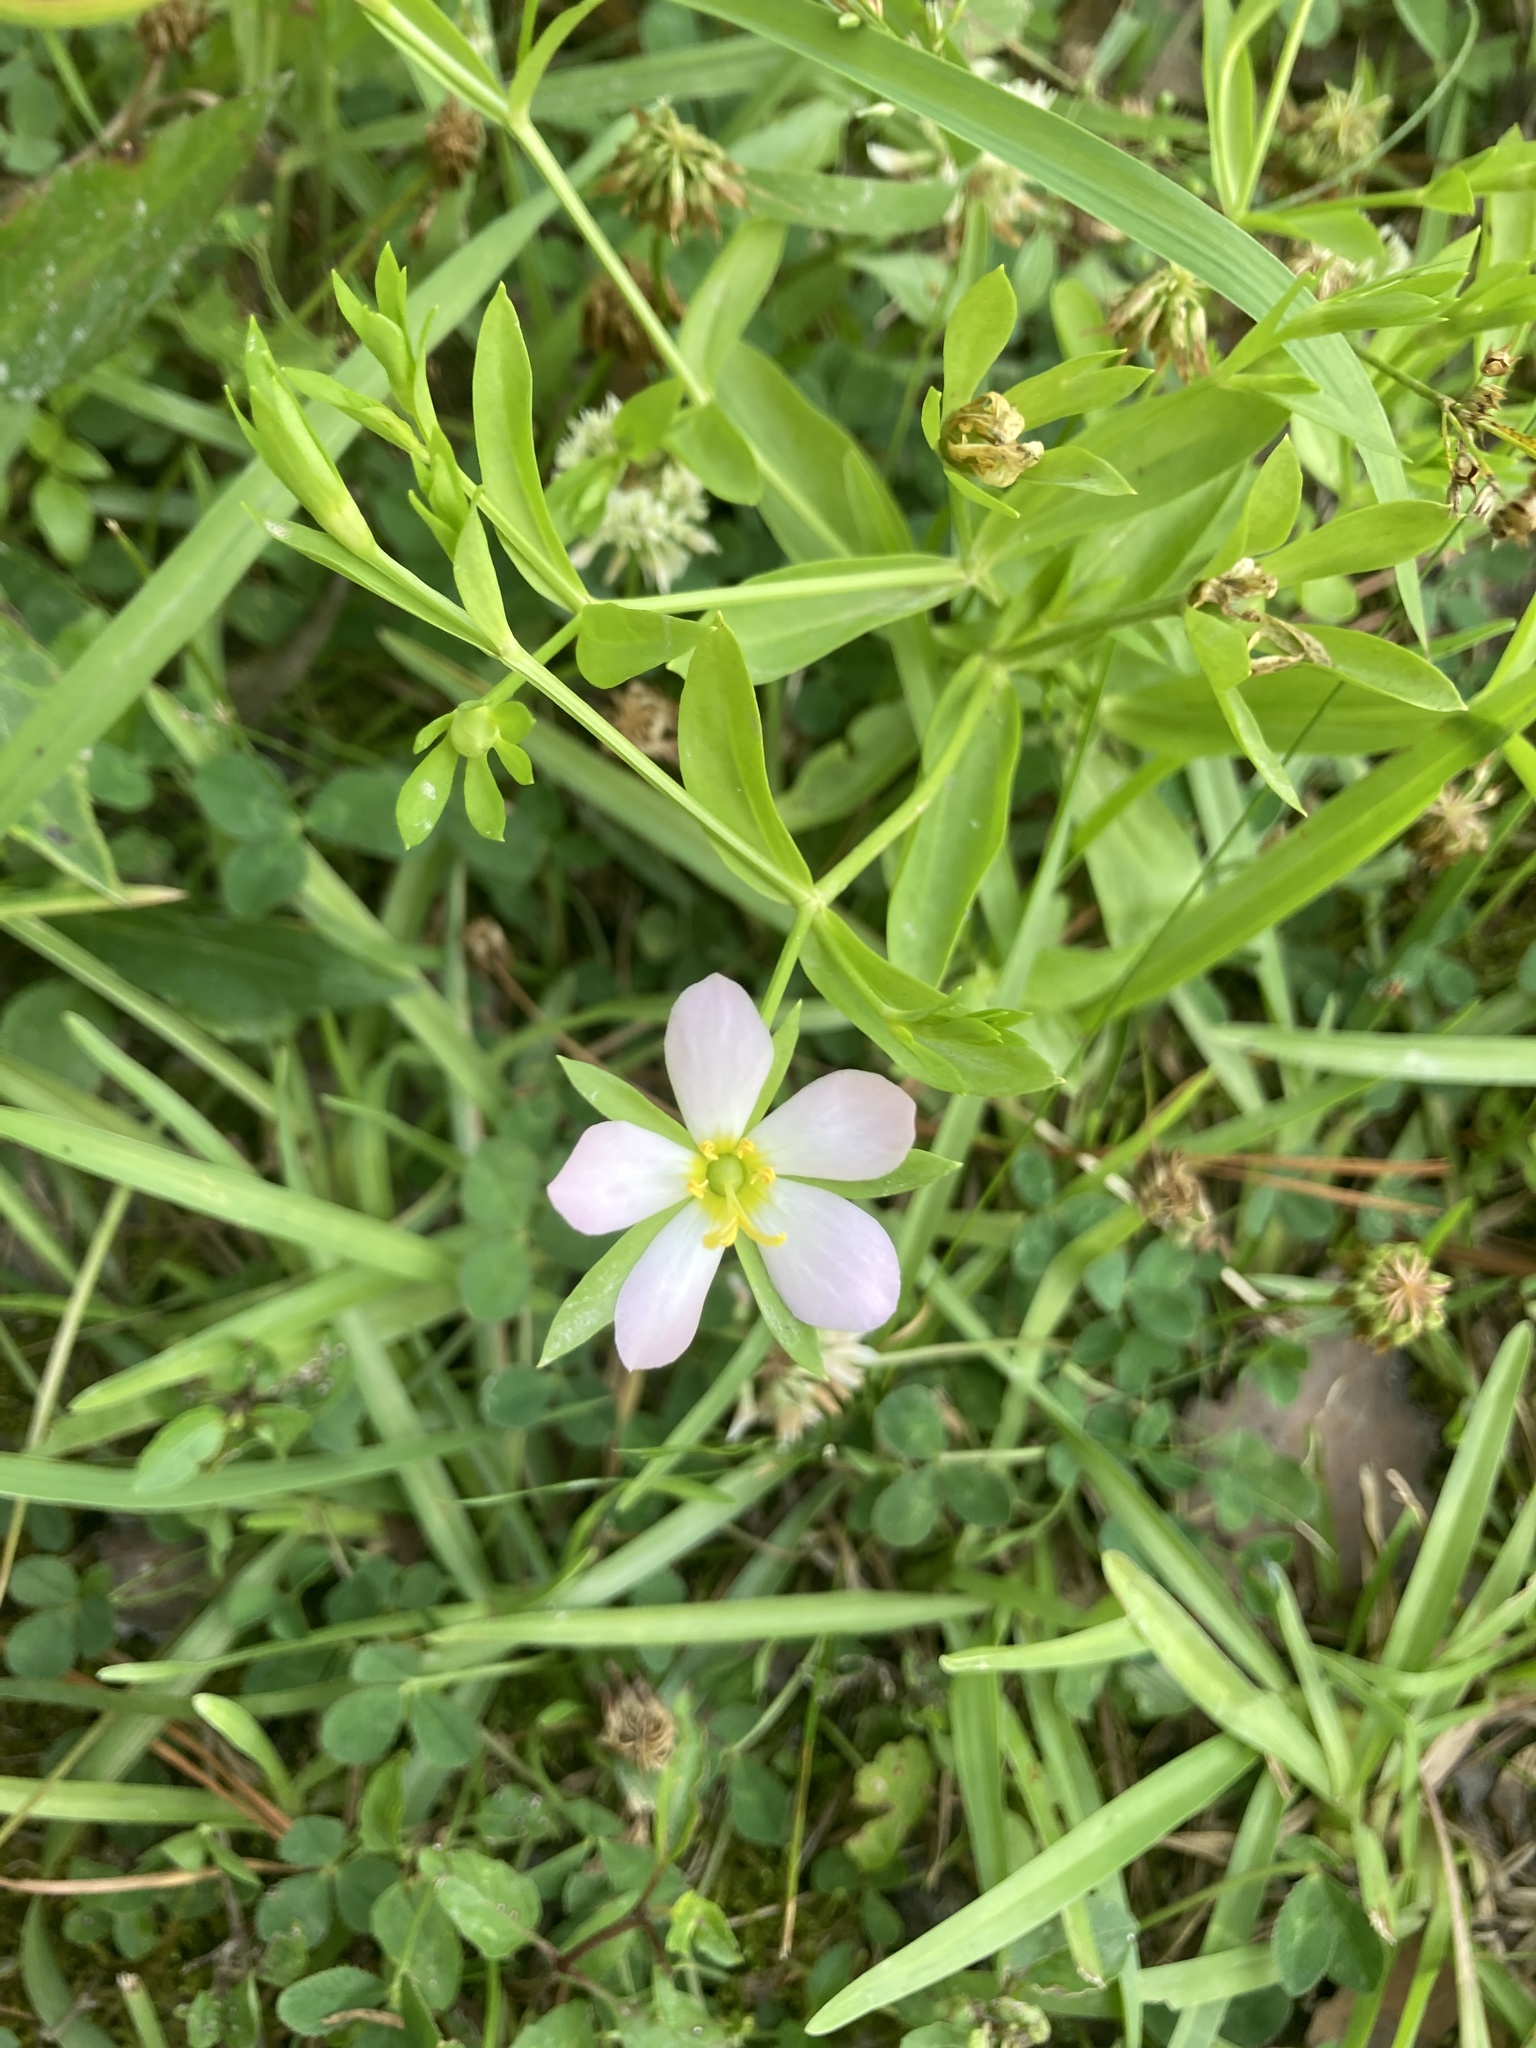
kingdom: Plantae
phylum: Tracheophyta
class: Magnoliopsida
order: Gentianales
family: Gentianaceae
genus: Sabatia
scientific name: Sabatia calycina
